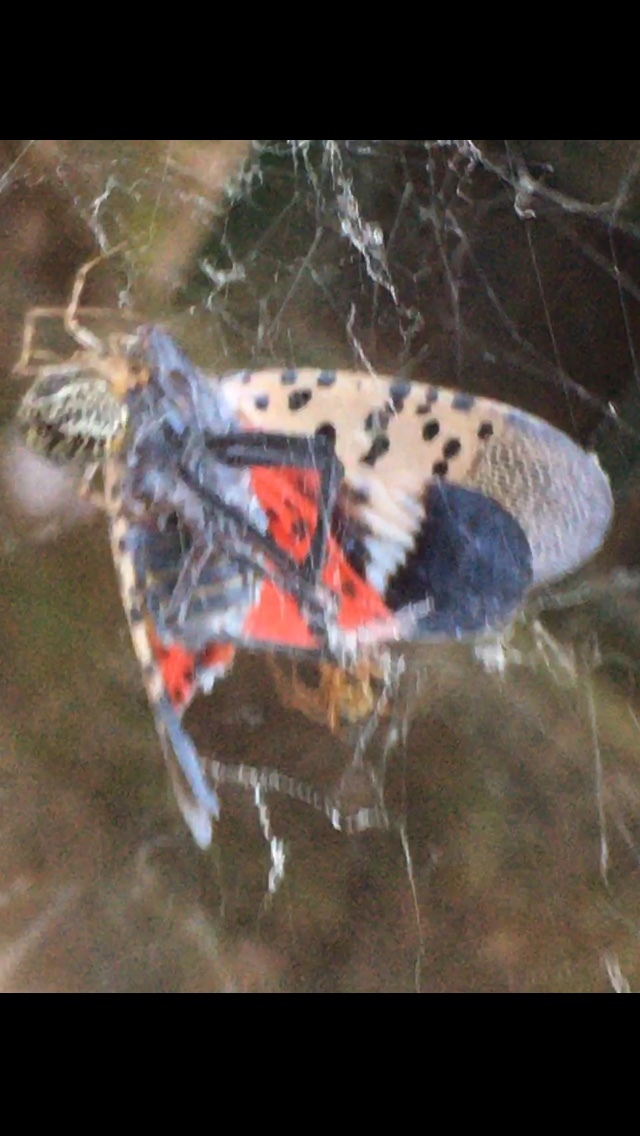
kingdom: Animalia
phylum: Arthropoda
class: Insecta
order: Hemiptera
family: Fulgoridae
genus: Lycorma
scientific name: Lycorma delicatula
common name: Spotted lanternfly
